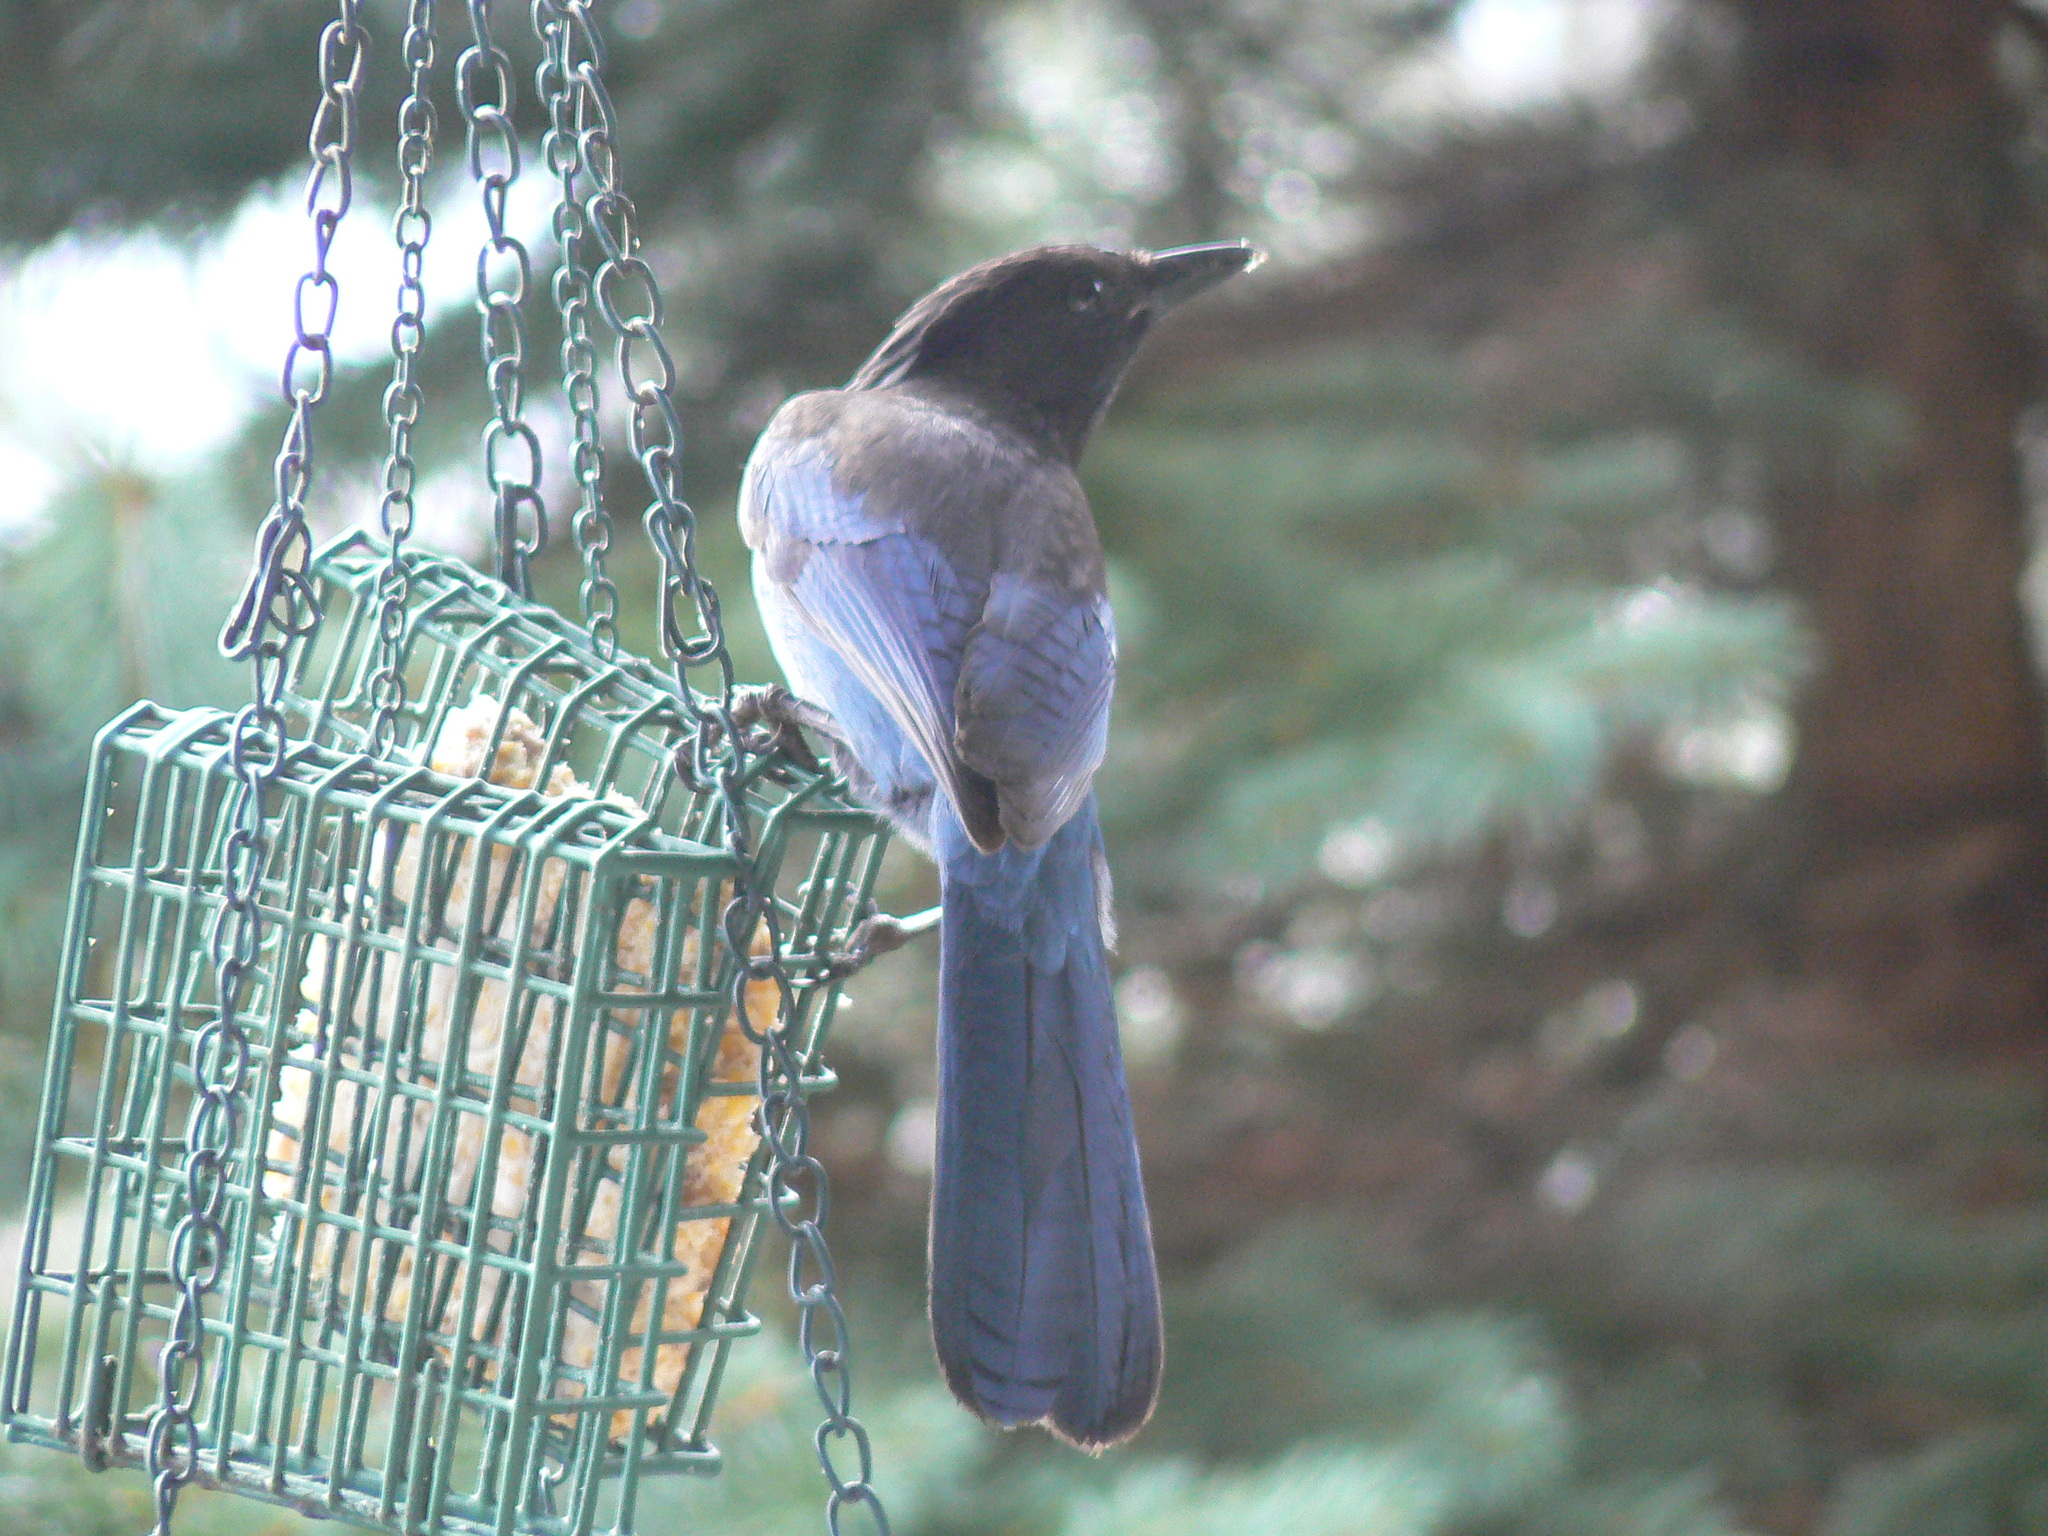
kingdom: Animalia
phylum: Chordata
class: Aves
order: Passeriformes
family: Corvidae
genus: Cyanocitta
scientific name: Cyanocitta stelleri
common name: Steller's jay
